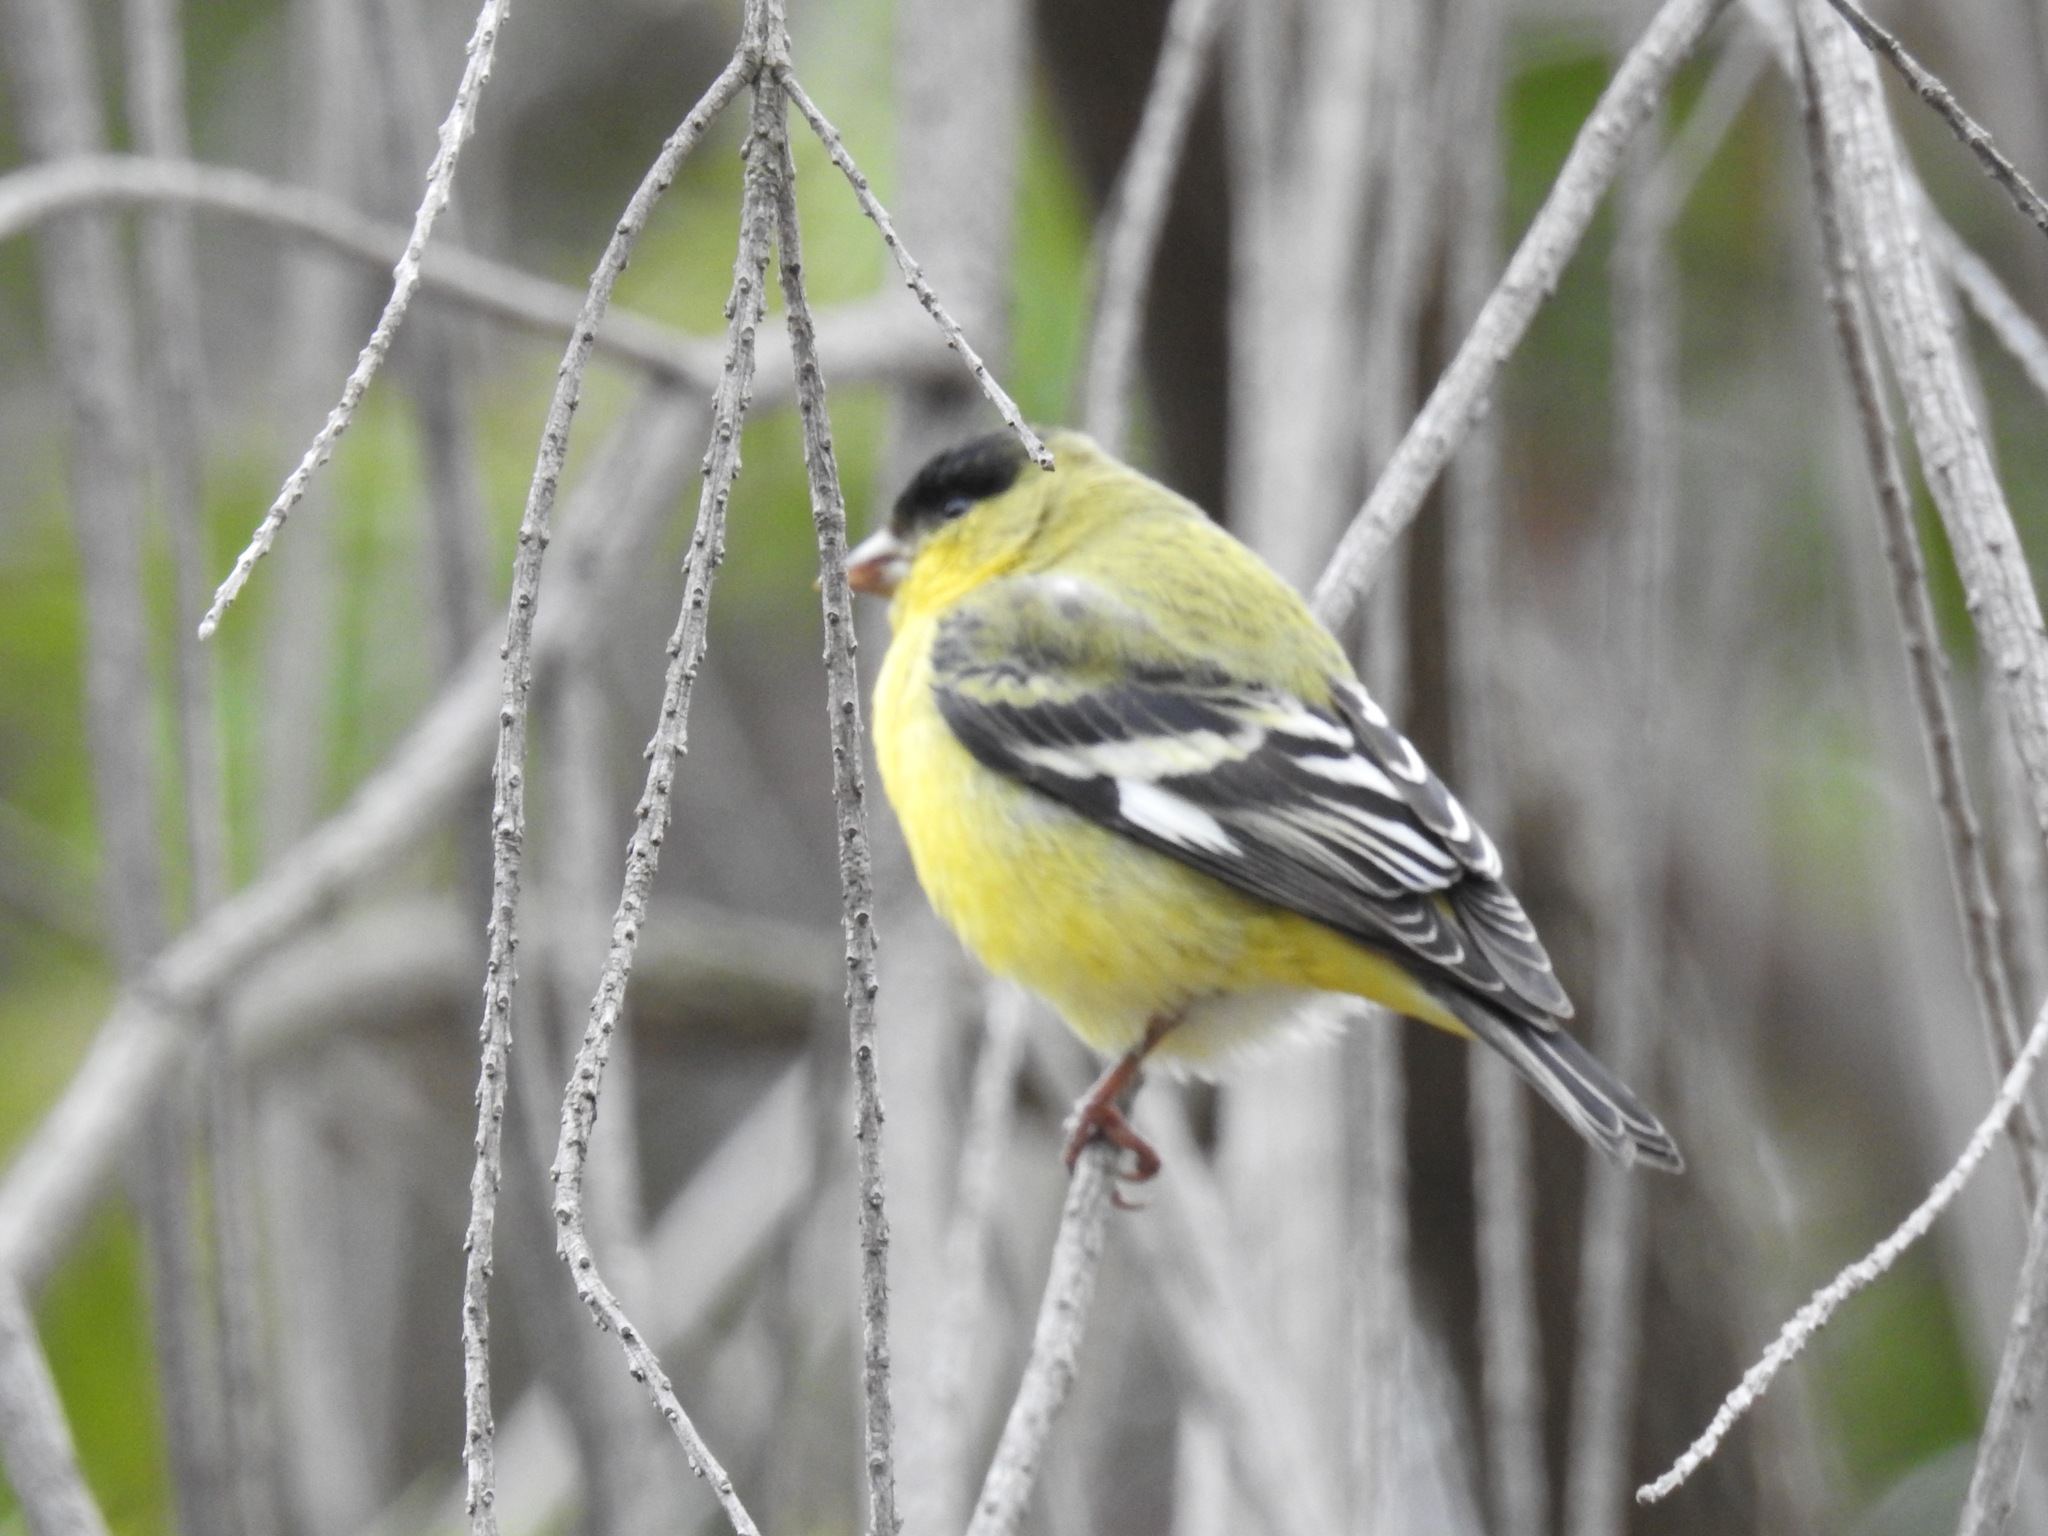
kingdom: Animalia
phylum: Chordata
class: Aves
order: Passeriformes
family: Fringillidae
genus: Spinus
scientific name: Spinus psaltria
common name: Lesser goldfinch
